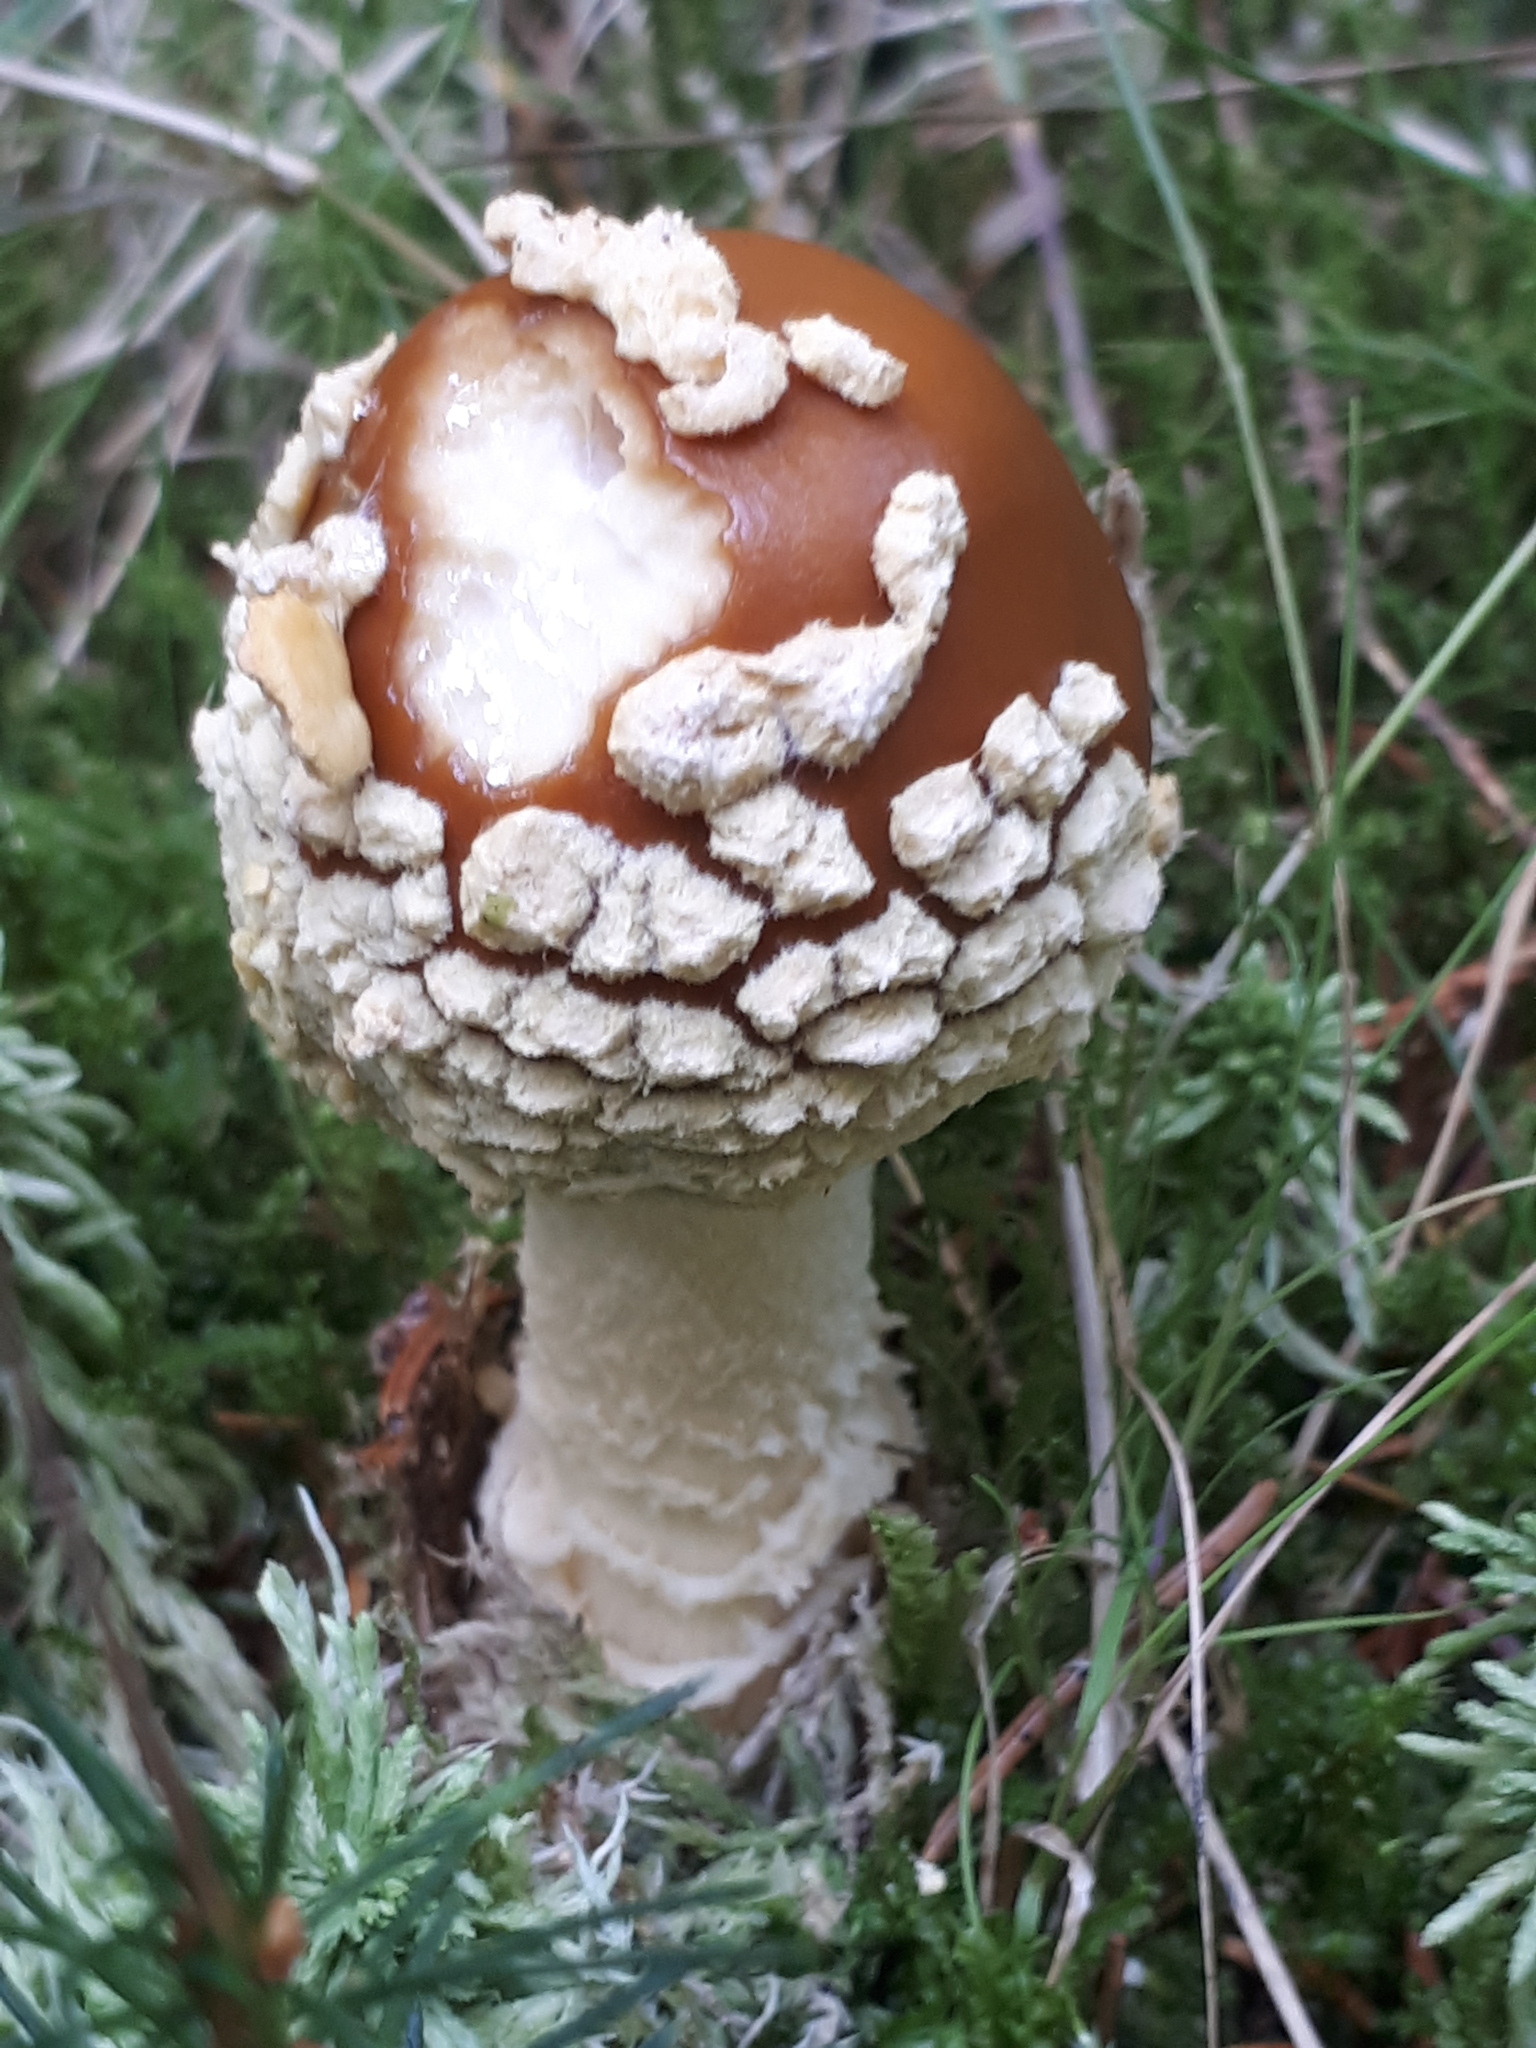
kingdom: Fungi
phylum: Basidiomycota
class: Agaricomycetes
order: Agaricales
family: Amanitaceae
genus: Amanita
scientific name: Amanita regalis
